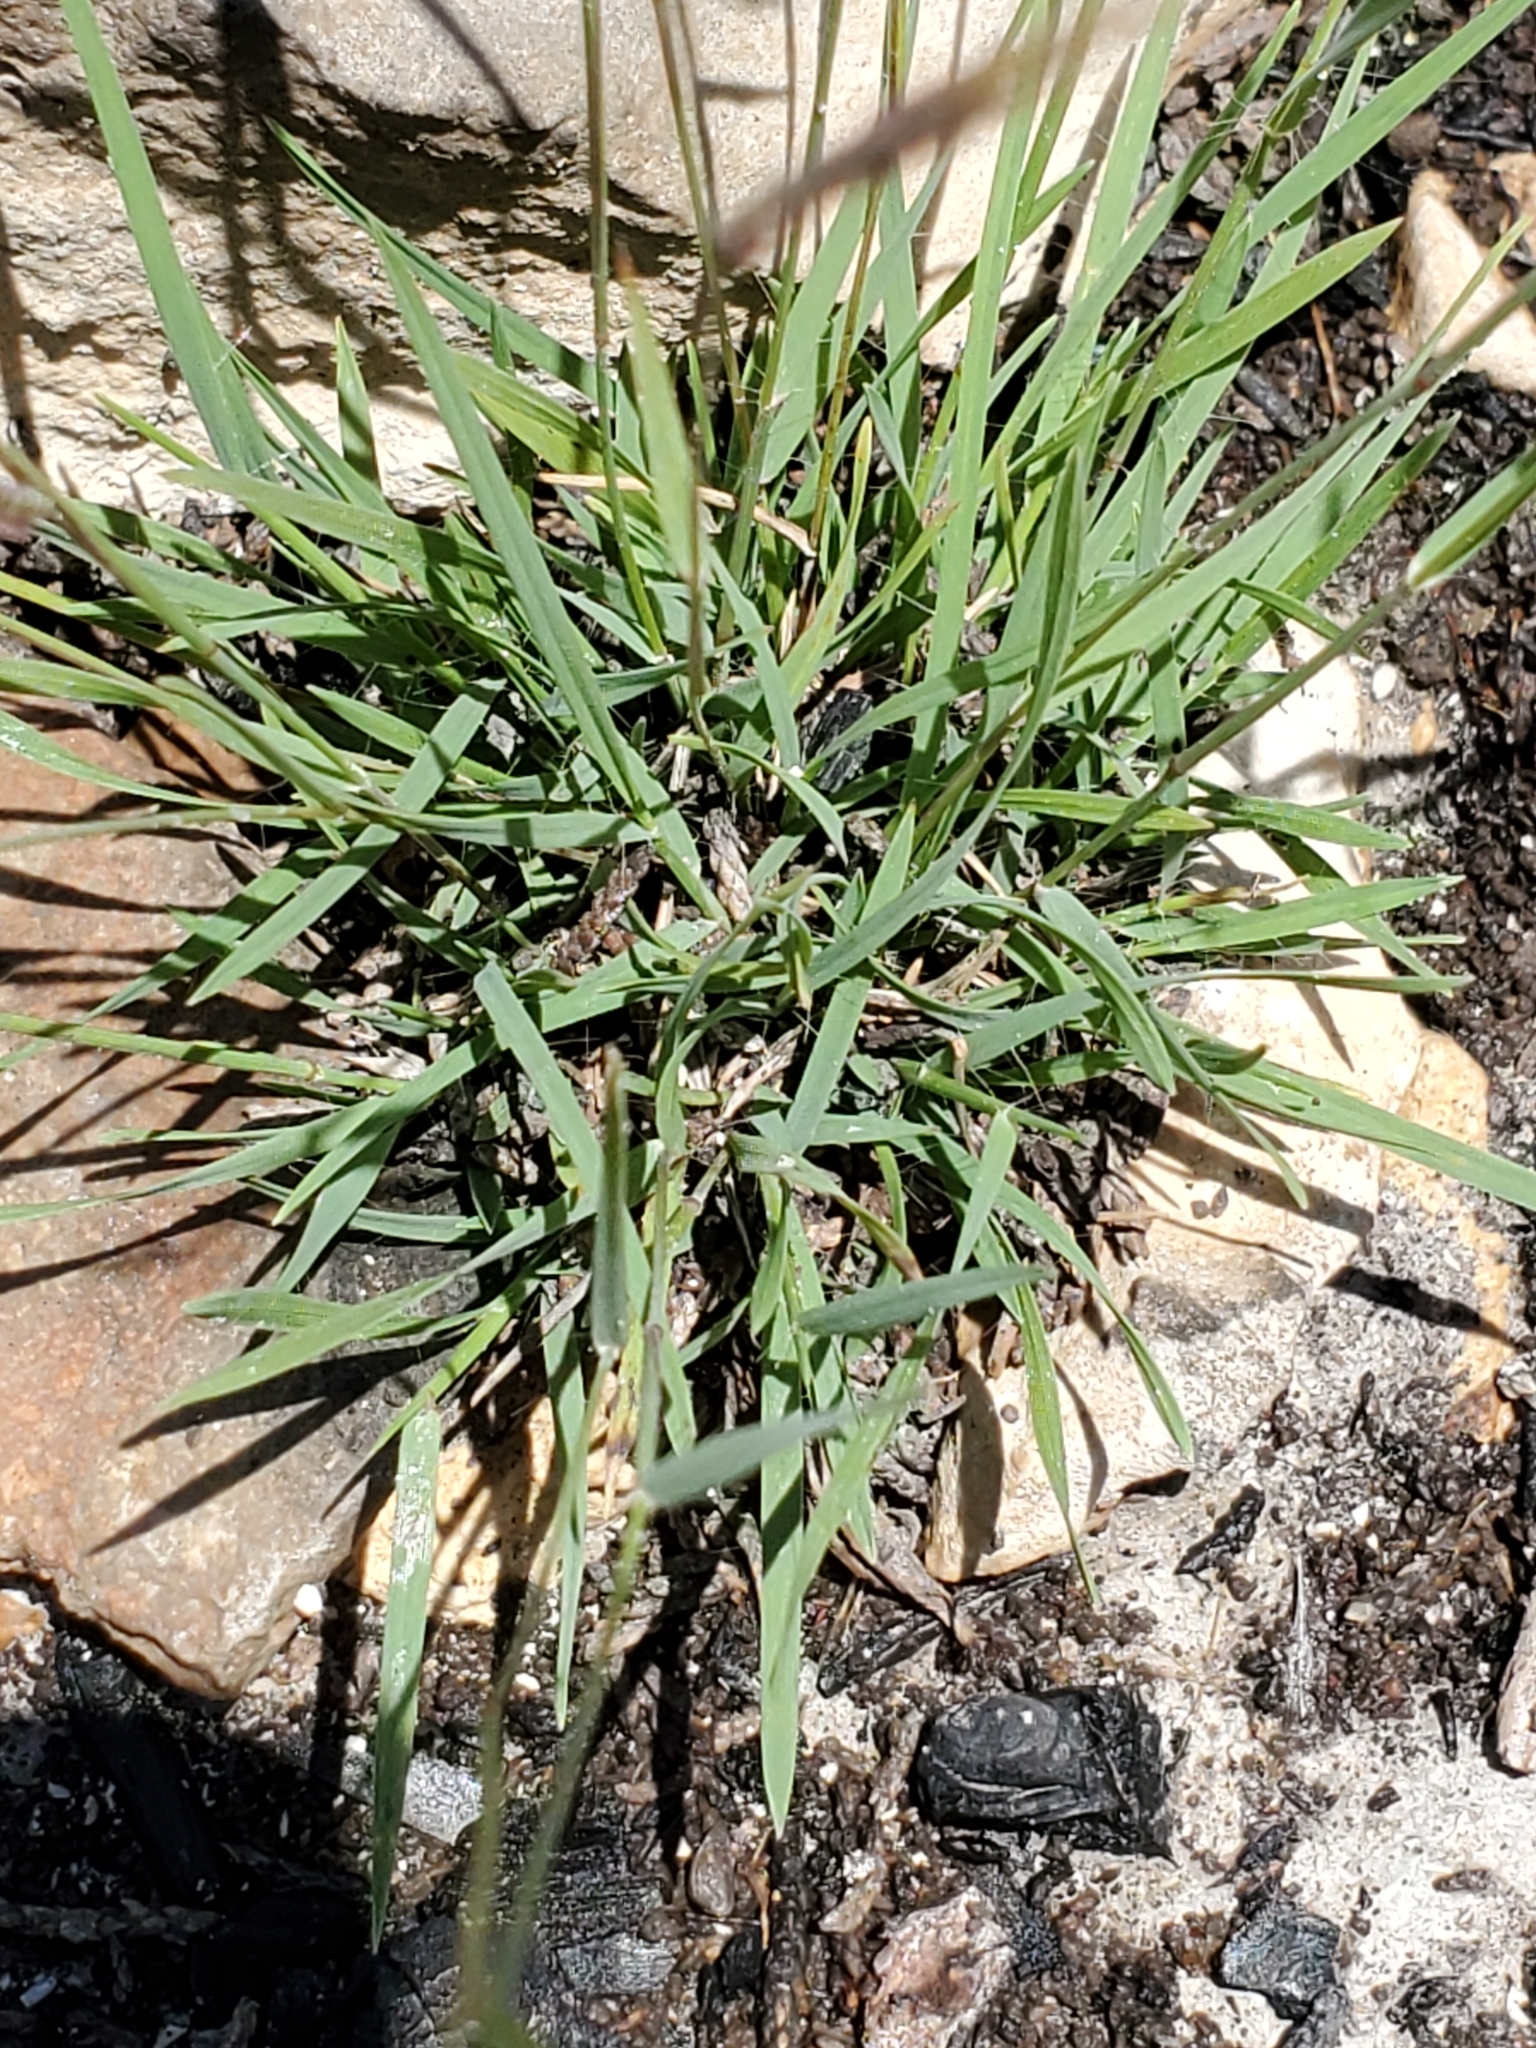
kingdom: Plantae
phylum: Tracheophyta
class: Liliopsida
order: Poales
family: Poaceae
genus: Bouteloua
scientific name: Bouteloua trifida
